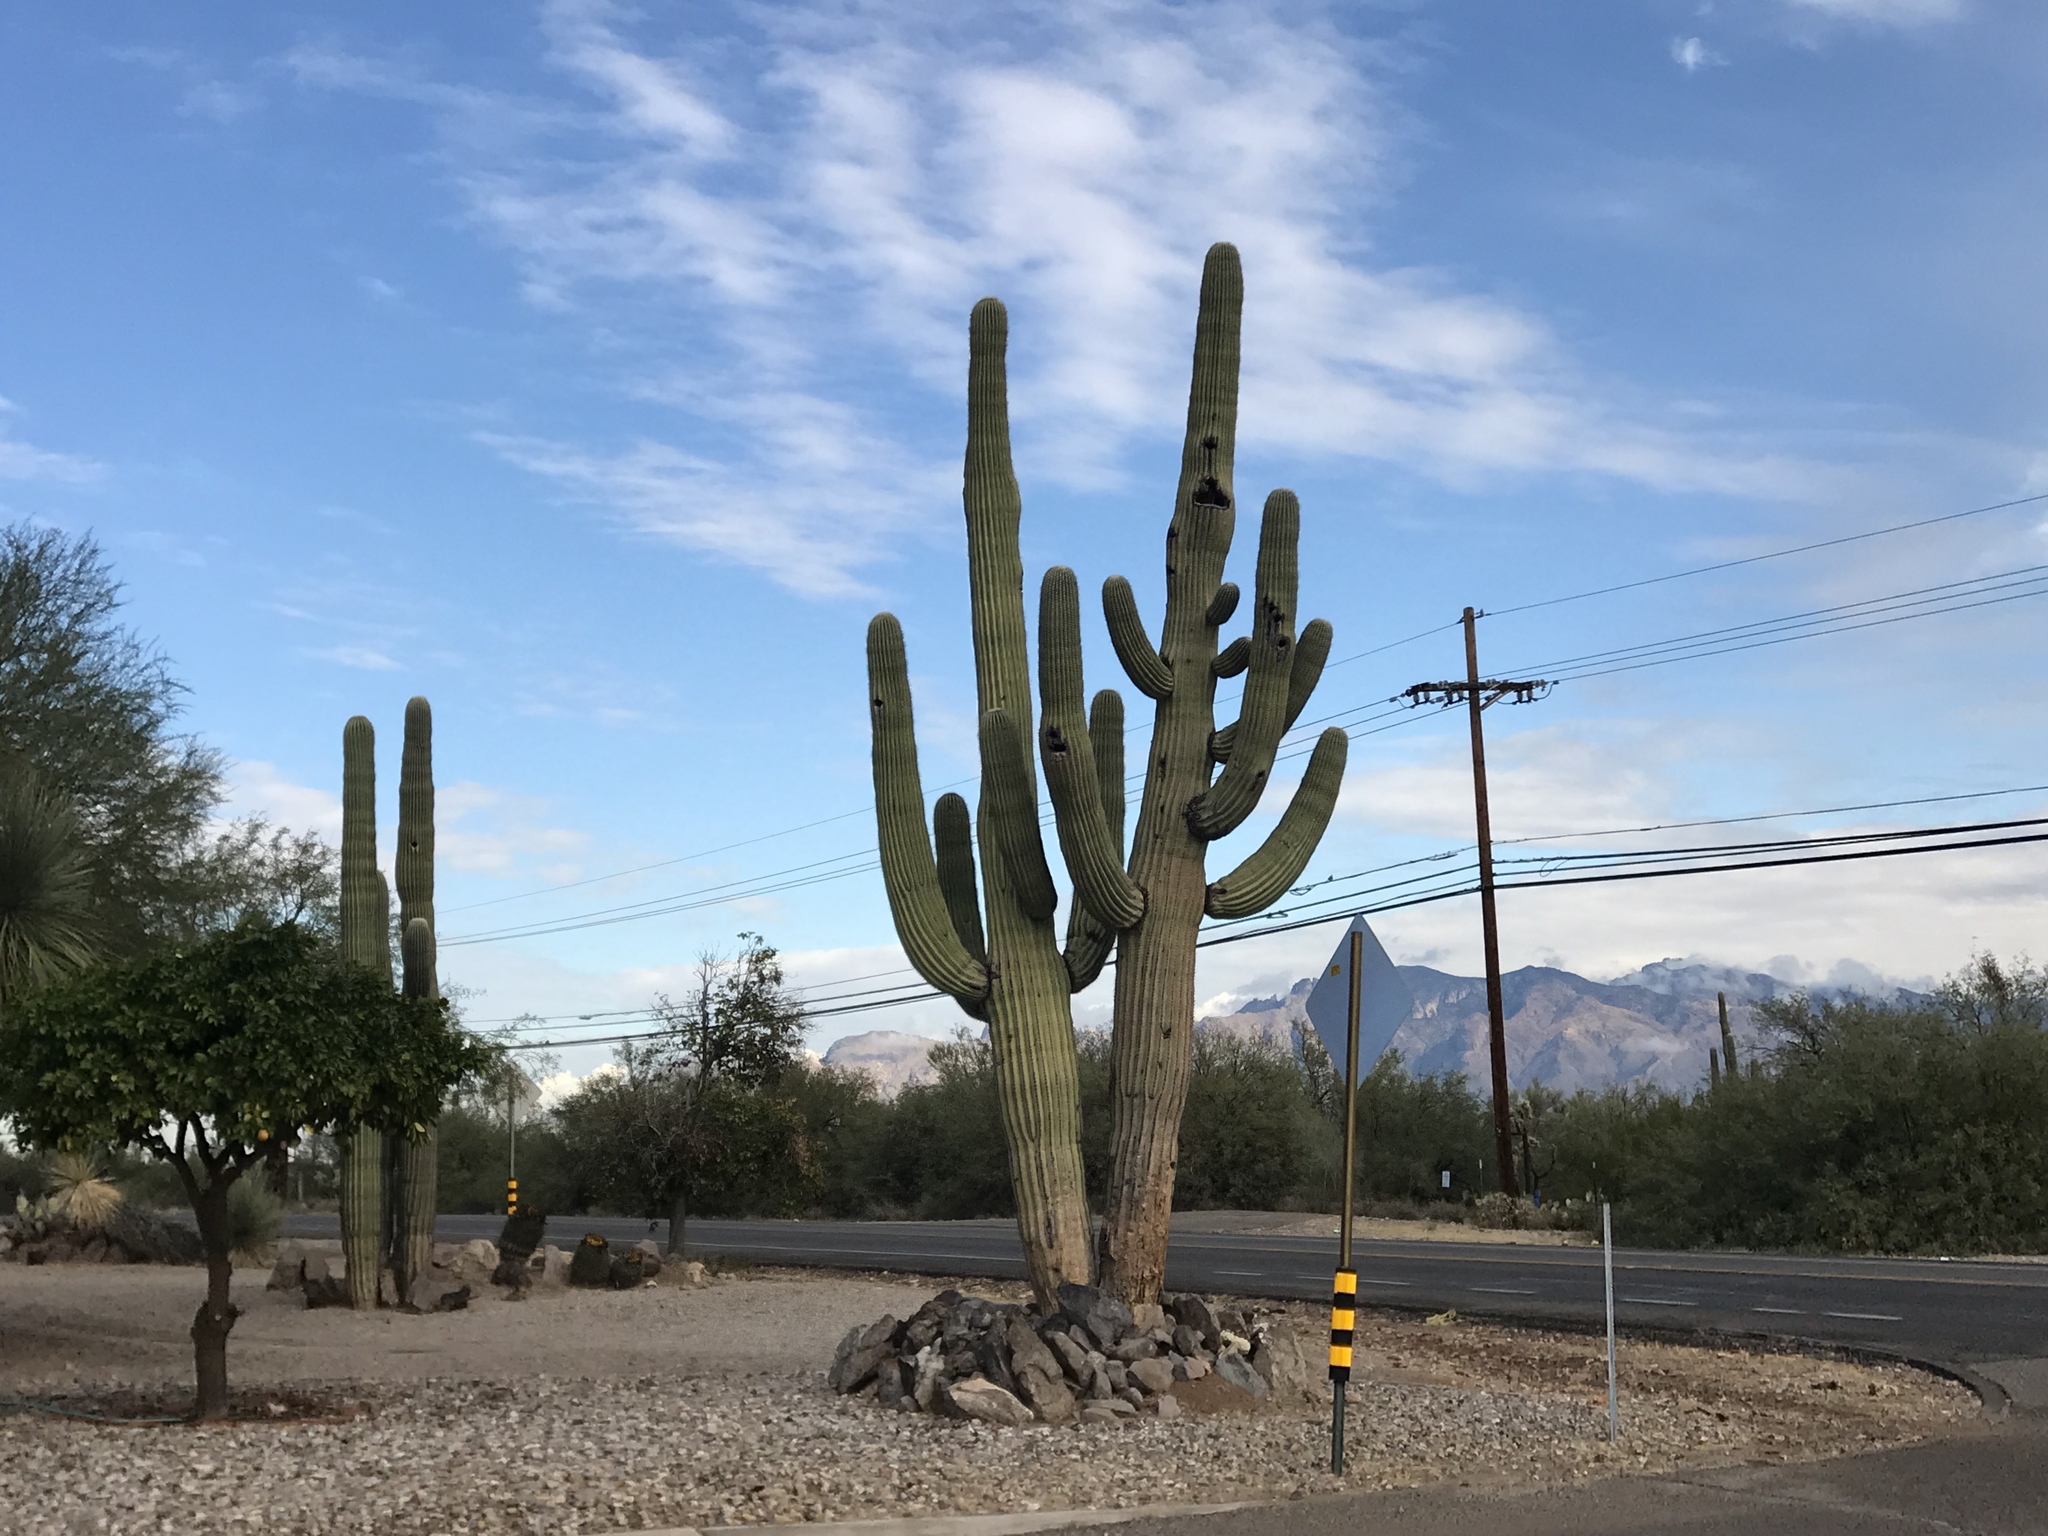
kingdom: Plantae
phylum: Tracheophyta
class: Magnoliopsida
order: Caryophyllales
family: Cactaceae
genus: Carnegiea
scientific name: Carnegiea gigantea
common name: Saguaro
